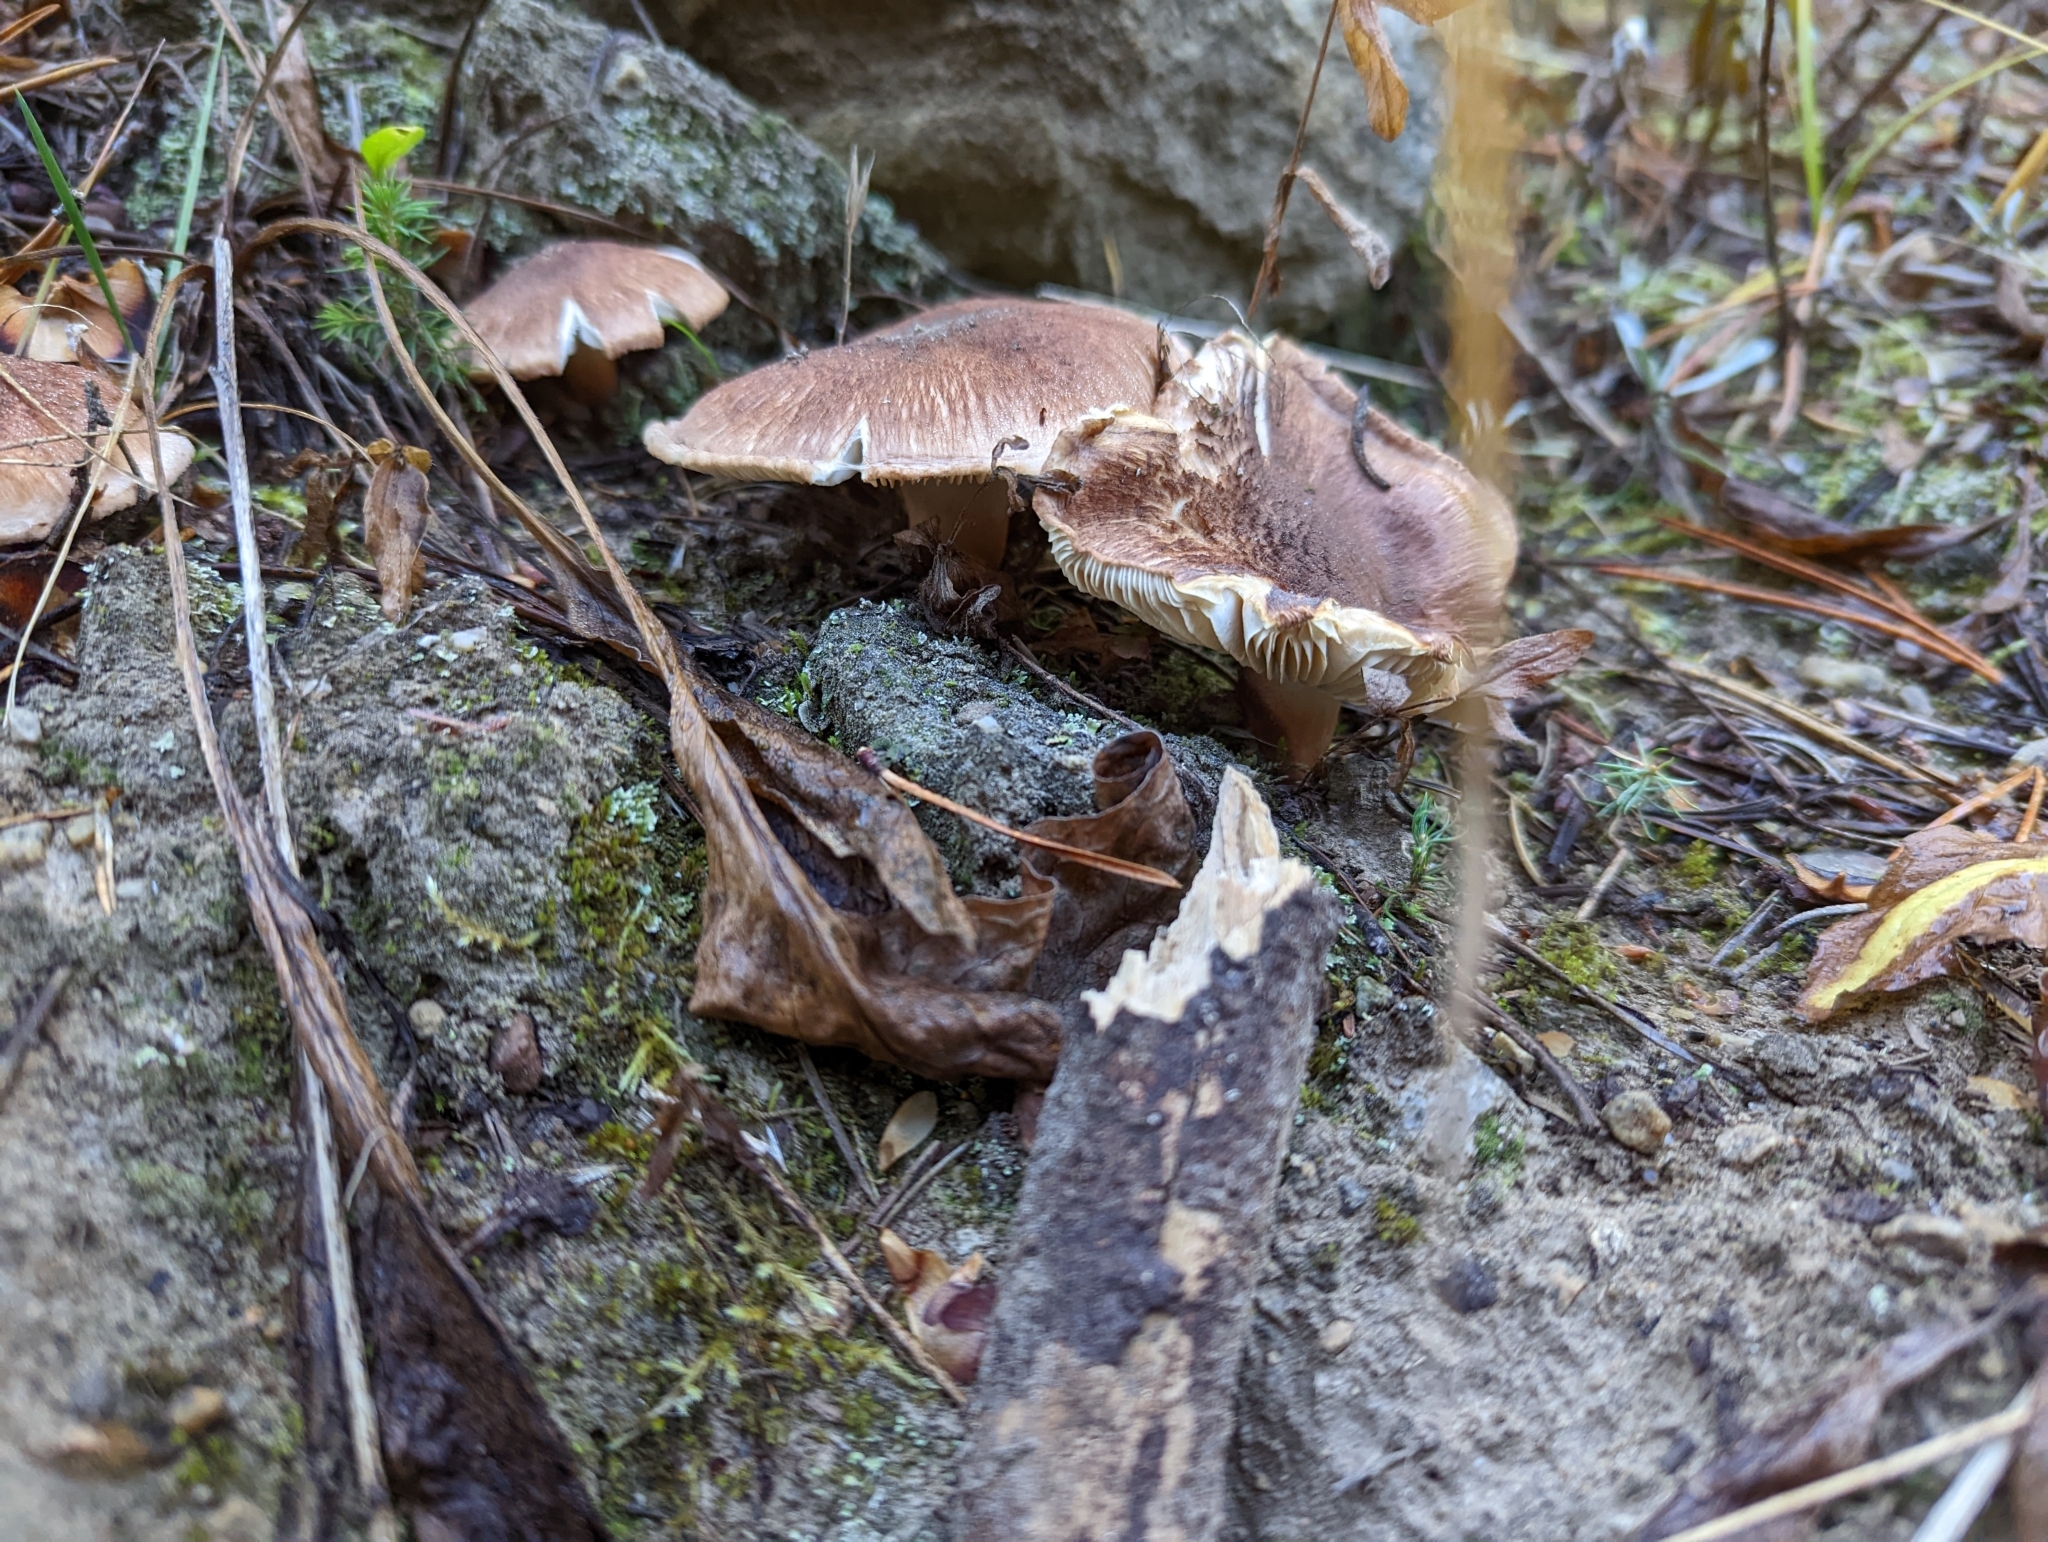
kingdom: Fungi
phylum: Basidiomycota
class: Agaricomycetes
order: Agaricales
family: Tricholomataceae
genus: Tricholoma
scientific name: Tricholoma vaccinum
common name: Scaly knight
